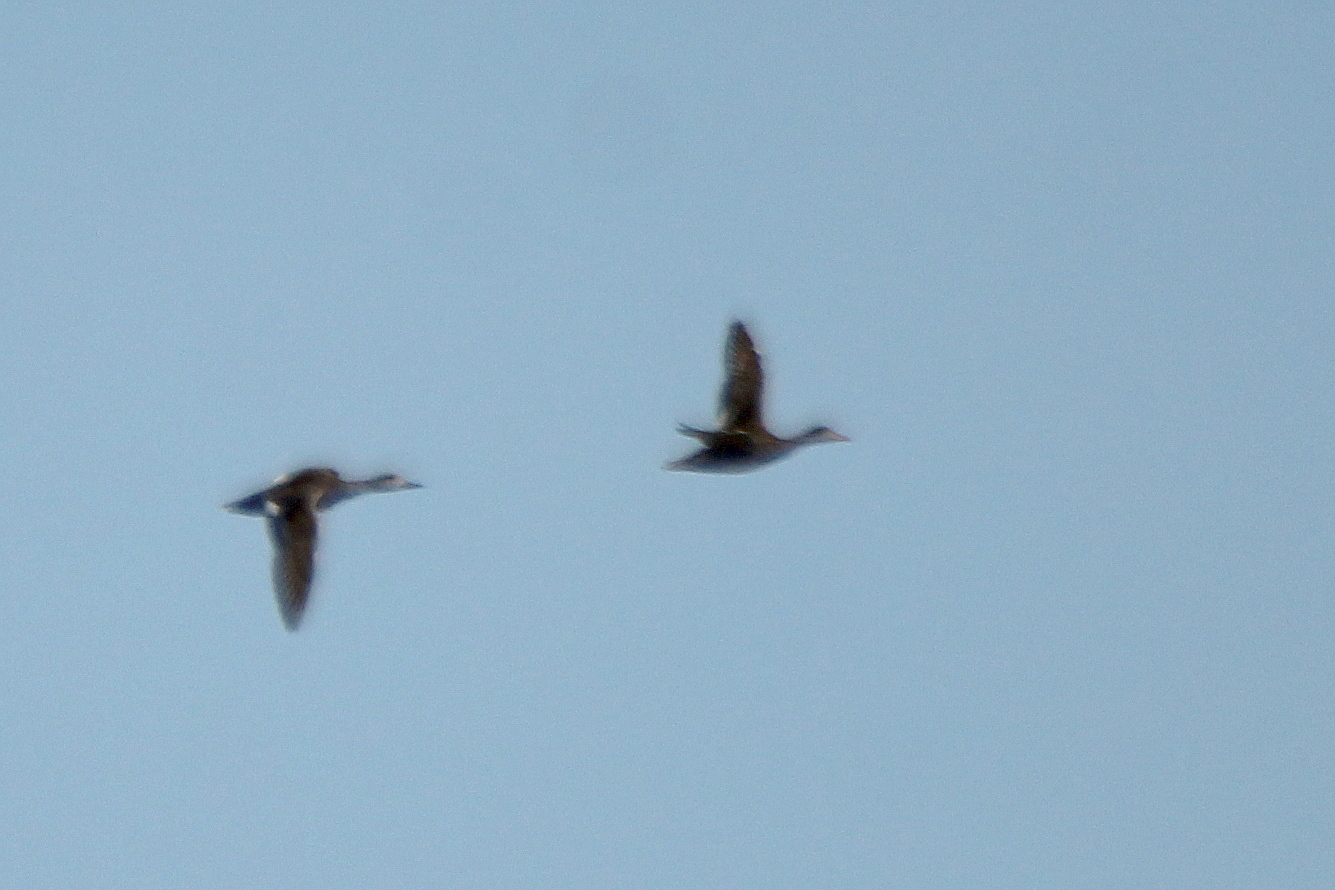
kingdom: Animalia
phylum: Chordata
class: Aves
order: Anseriformes
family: Anatidae
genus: Mareca
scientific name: Mareca strepera
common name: Gadwall
